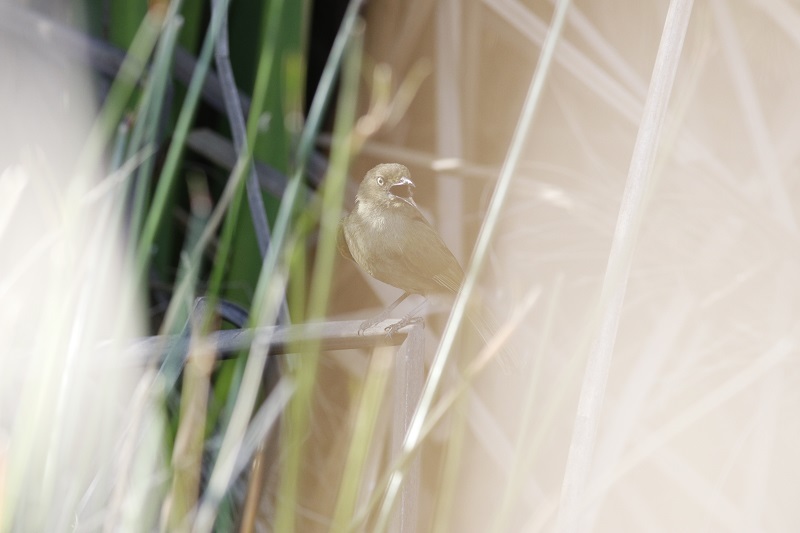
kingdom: Animalia
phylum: Chordata
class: Aves
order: Passeriformes
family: Pycnonotidae
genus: Andropadus
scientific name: Andropadus importunus
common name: Sombre greenbul
